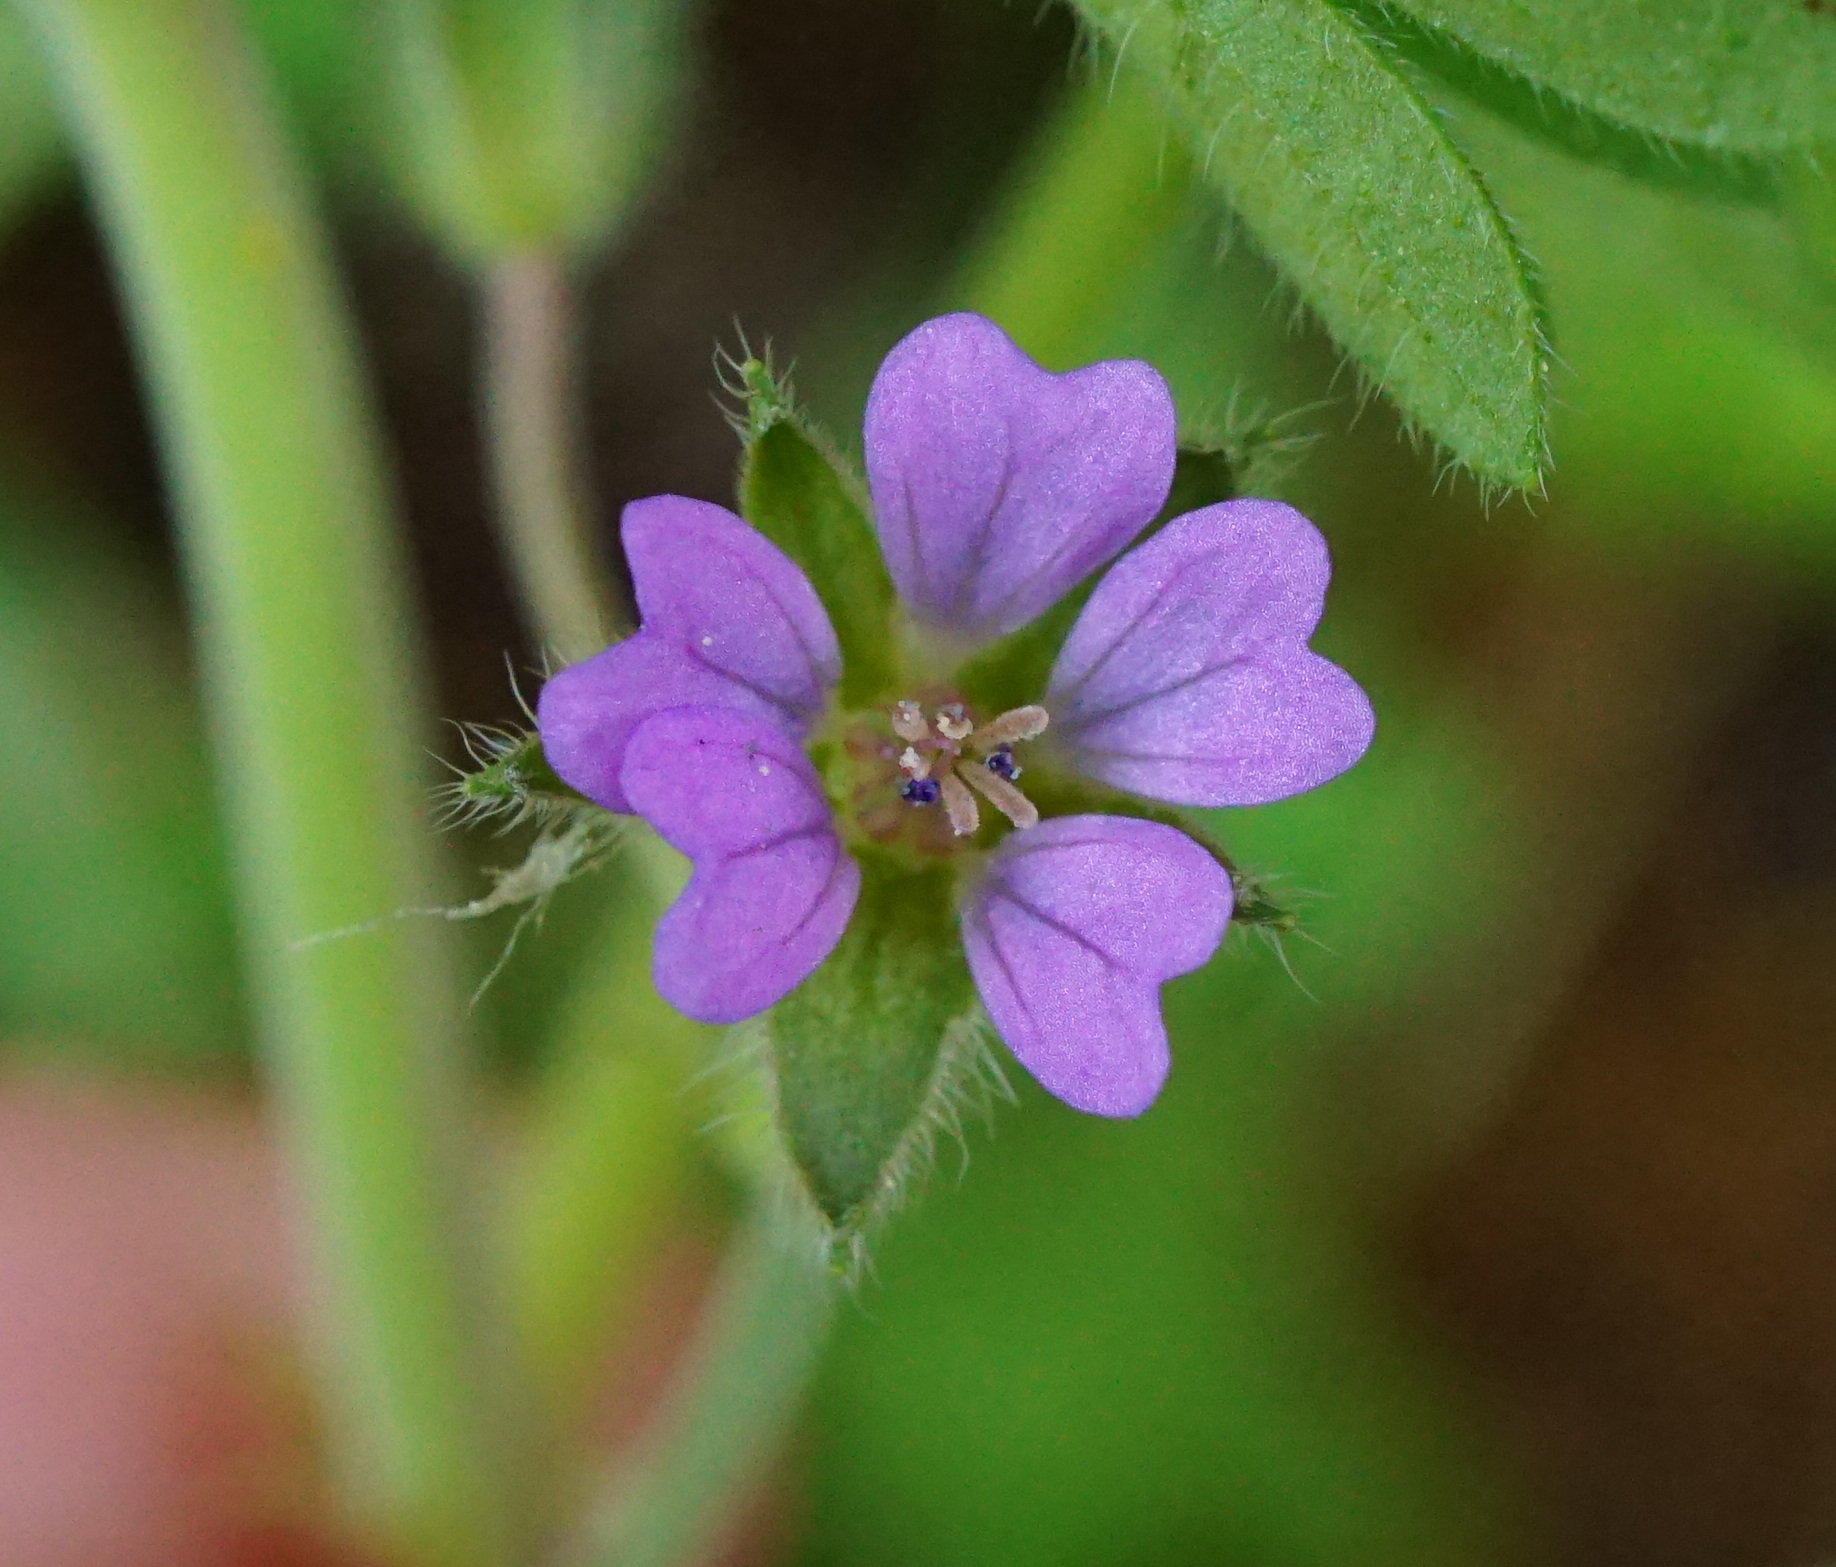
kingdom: Plantae
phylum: Tracheophyta
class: Magnoliopsida
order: Geraniales
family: Geraniaceae
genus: Geranium
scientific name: Geranium pusillum
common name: Small geranium
